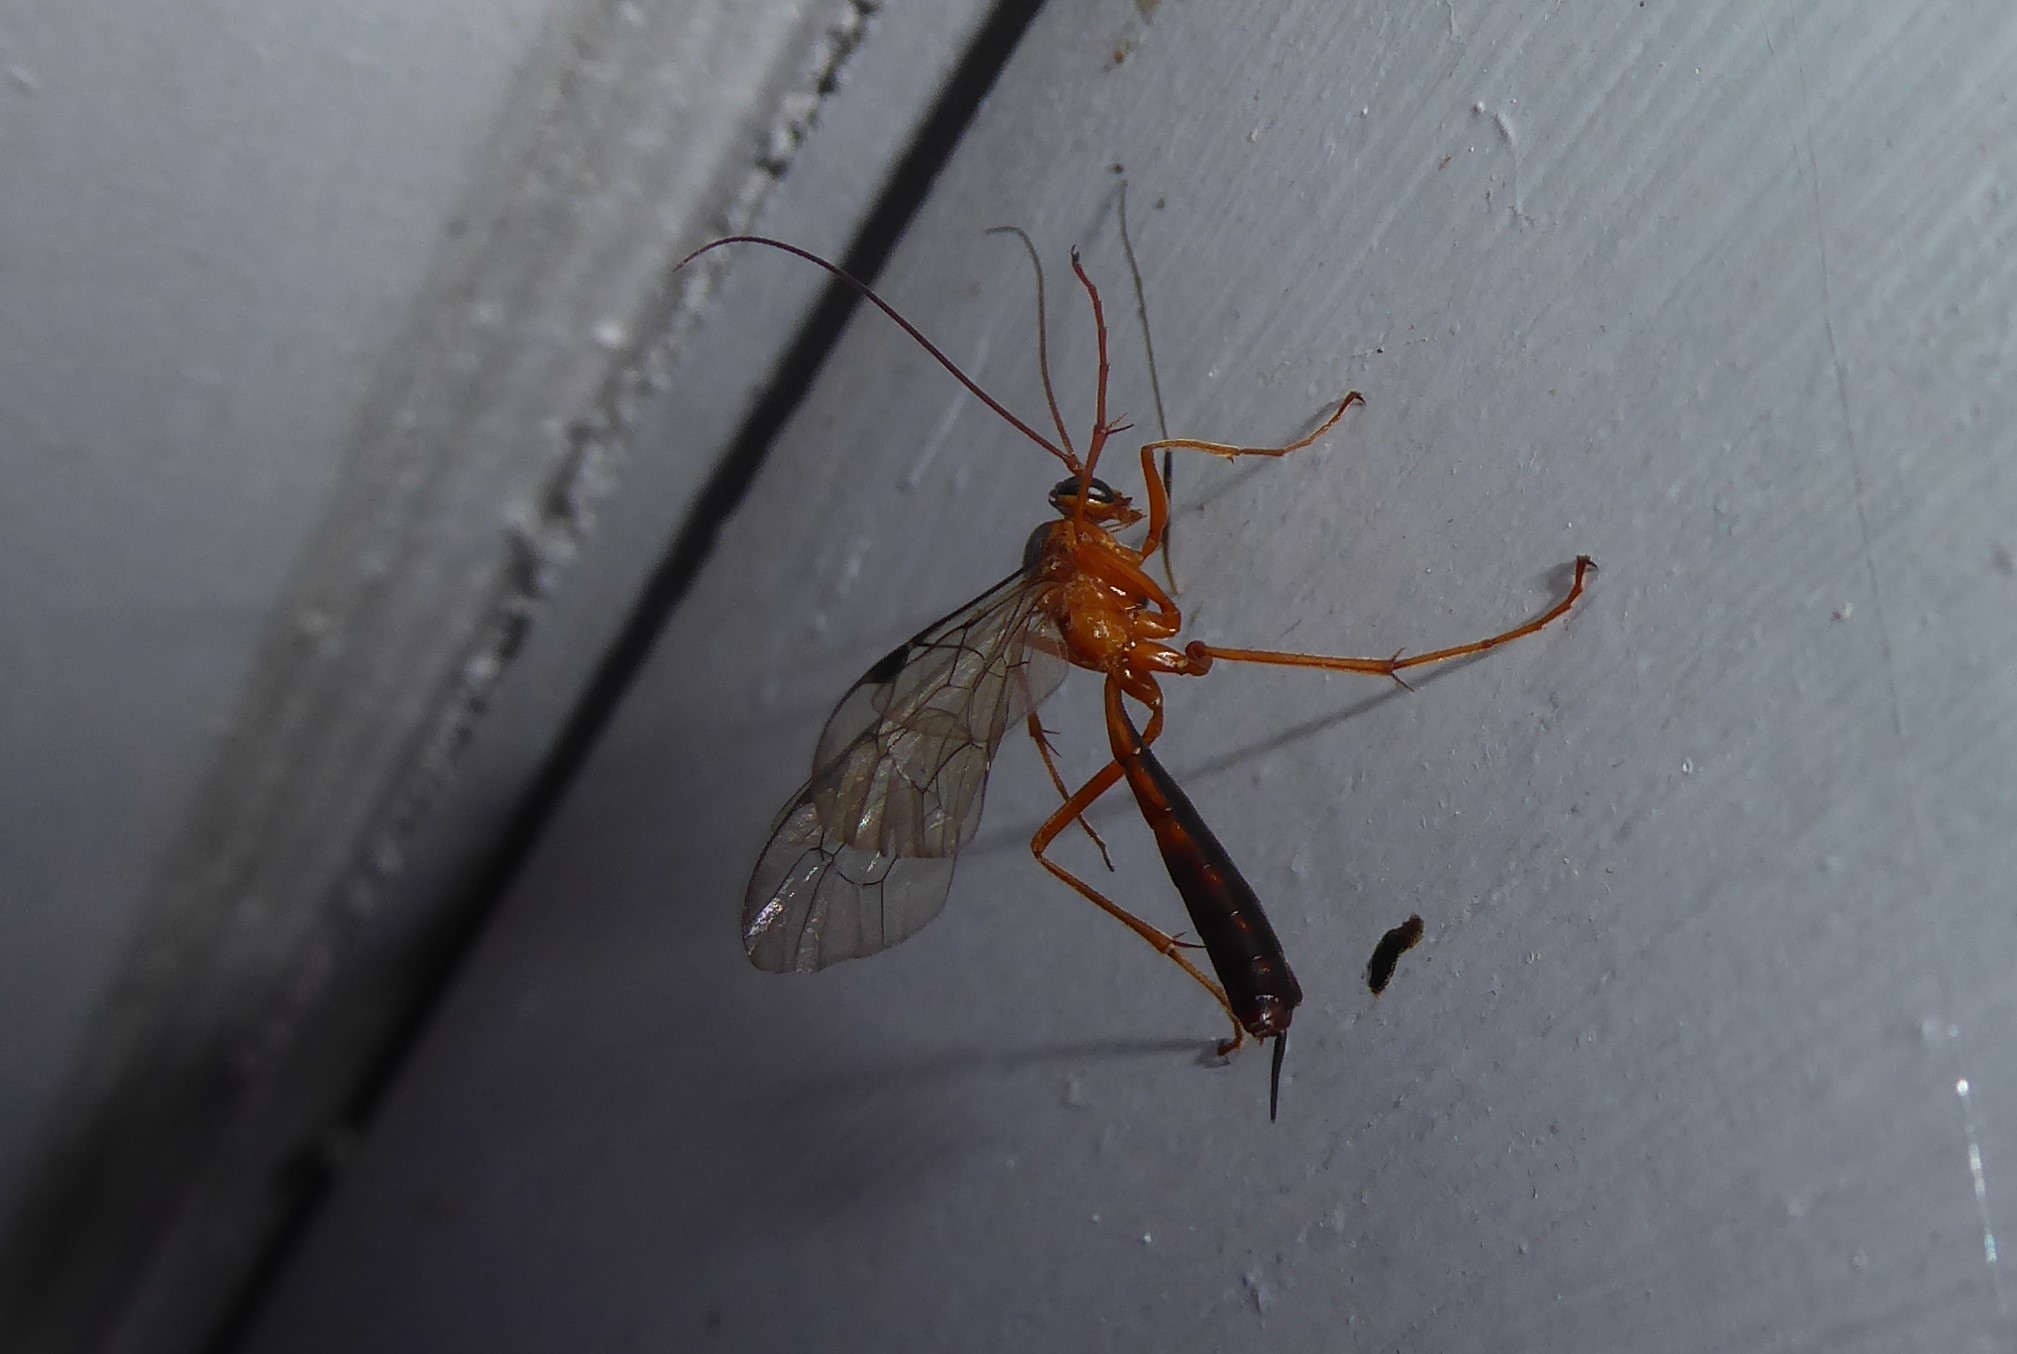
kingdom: Animalia
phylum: Arthropoda
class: Insecta
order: Hymenoptera
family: Ichneumonidae
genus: Netelia
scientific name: Netelia ephippiata
